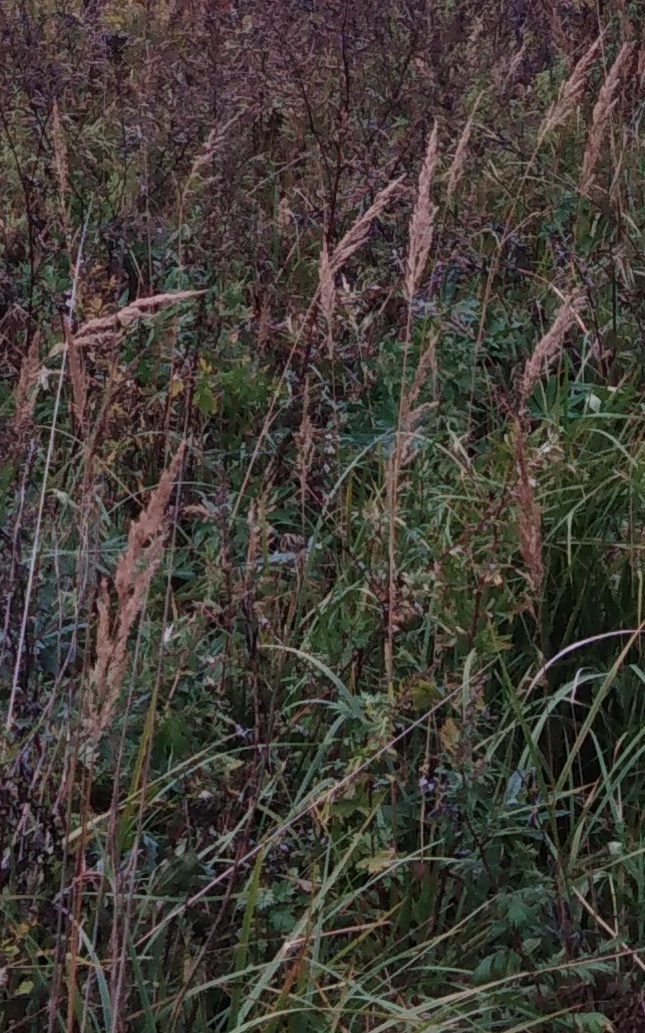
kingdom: Plantae
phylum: Tracheophyta
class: Liliopsida
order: Poales
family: Poaceae
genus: Calamagrostis
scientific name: Calamagrostis epigejos
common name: Wood small-reed
